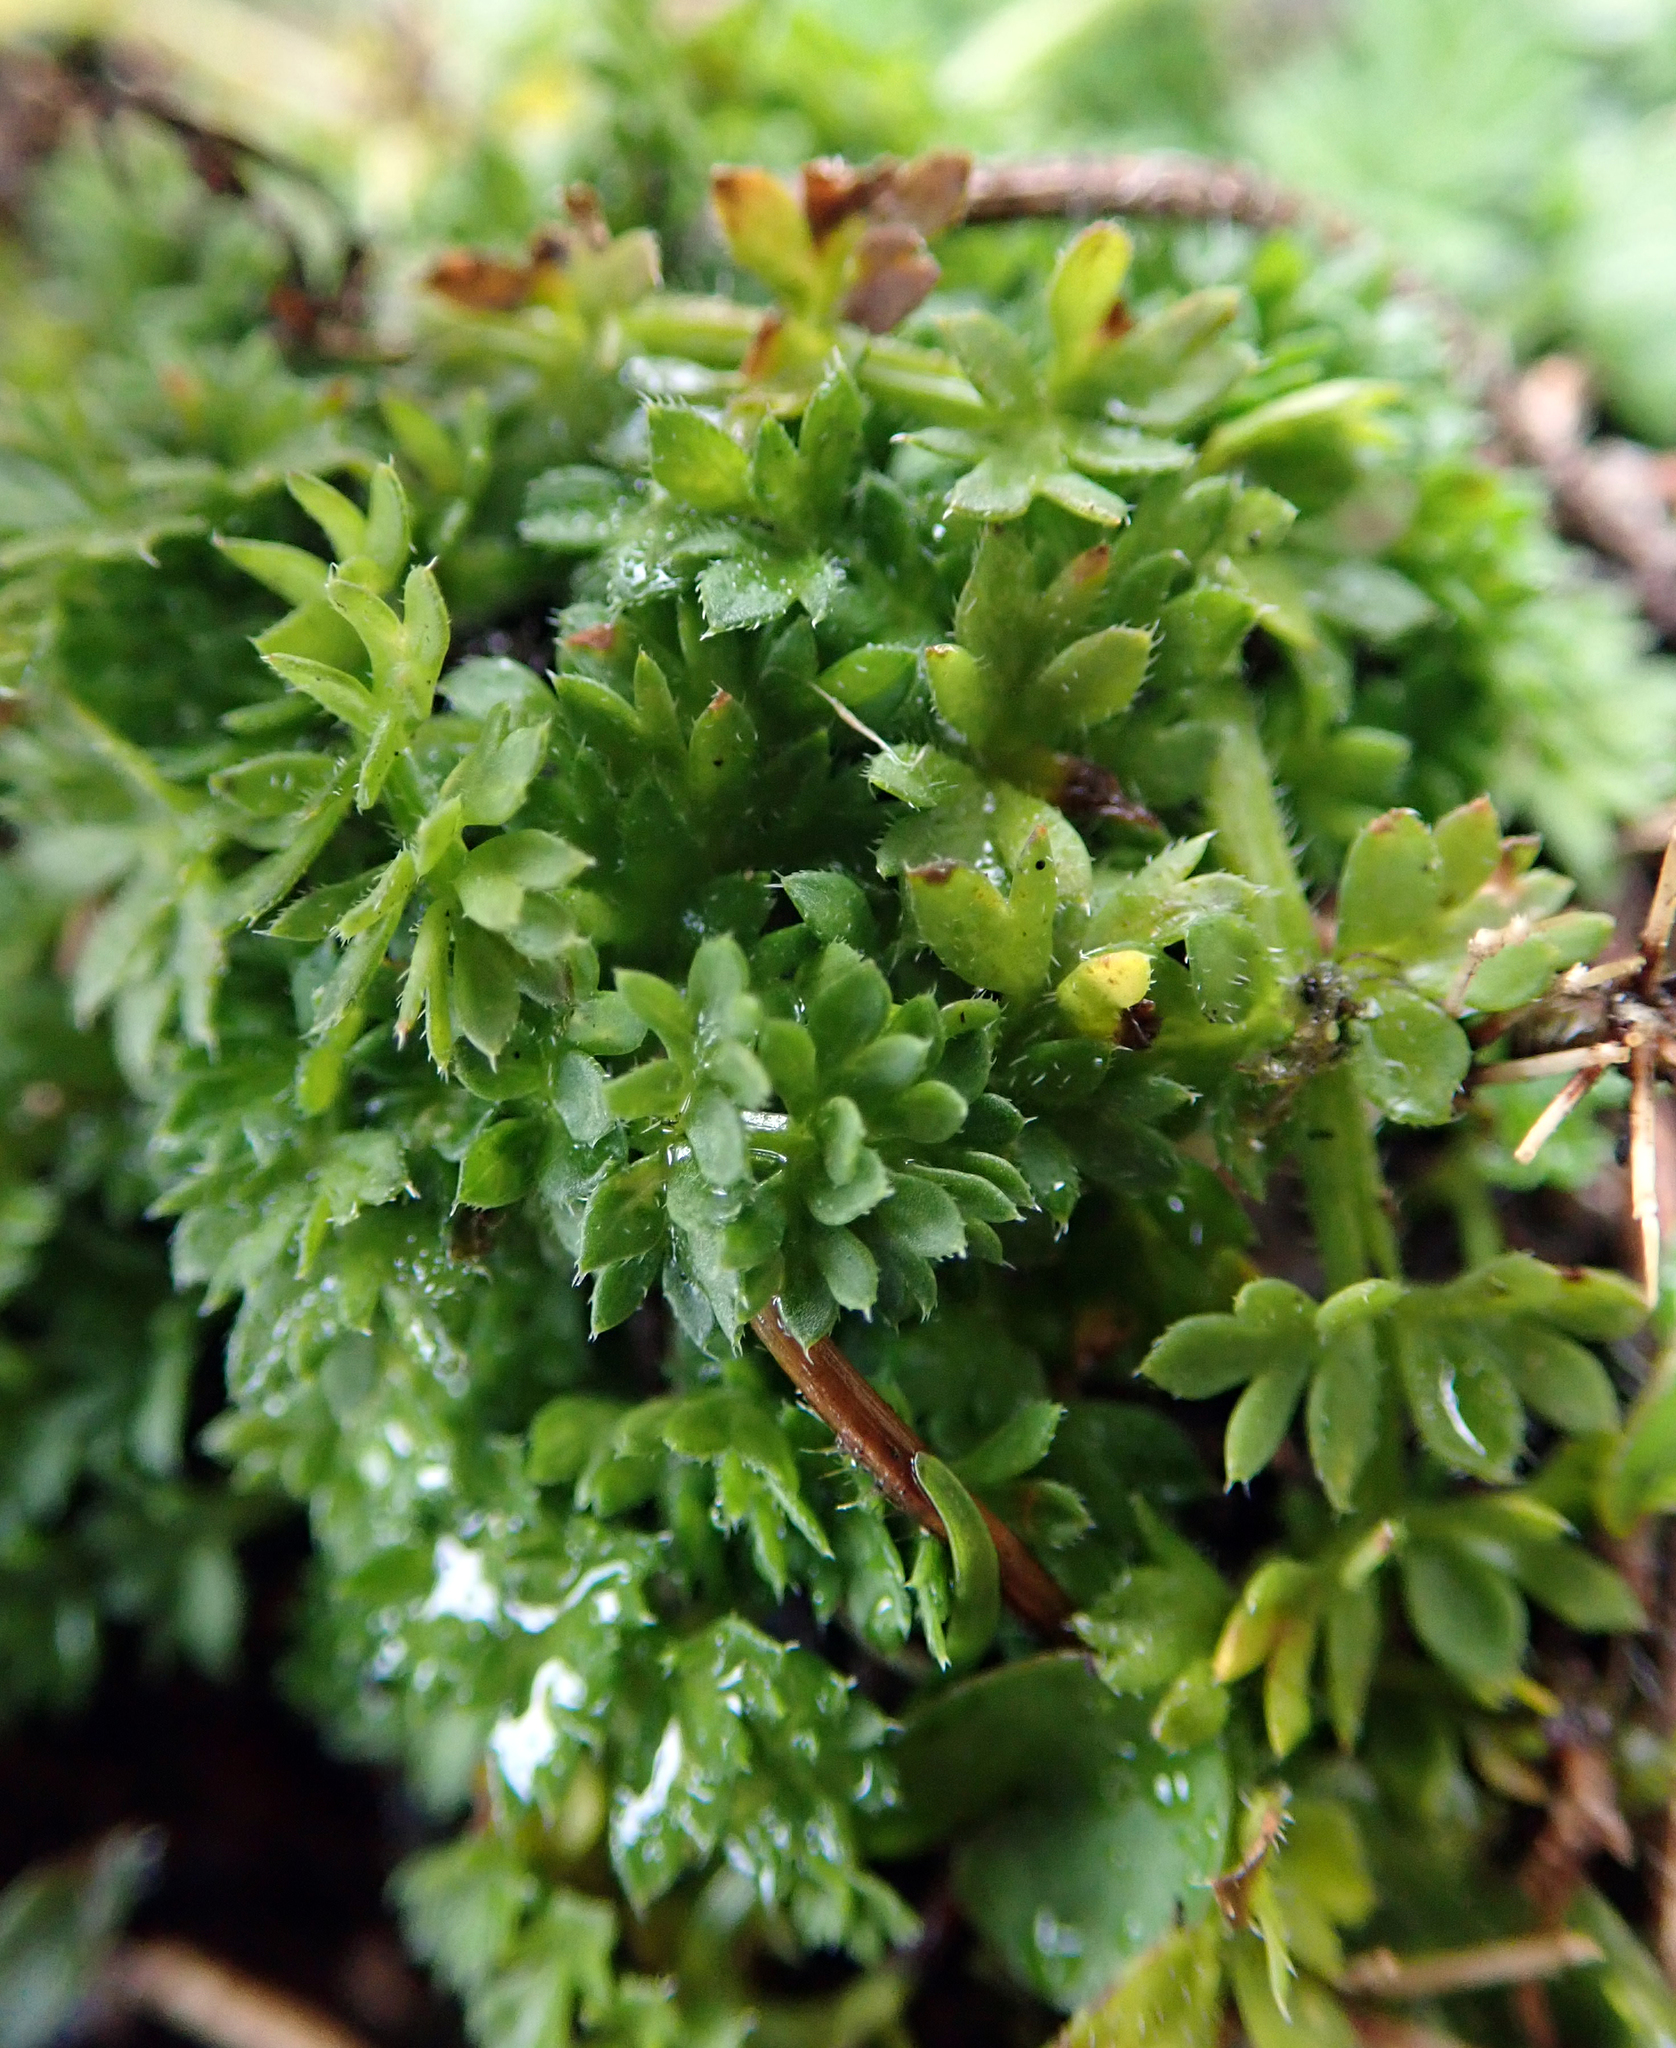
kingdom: Plantae
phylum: Tracheophyta
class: Magnoliopsida
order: Apiales
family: Apiaceae
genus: Chaerophyllum
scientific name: Chaerophyllum colensoi
